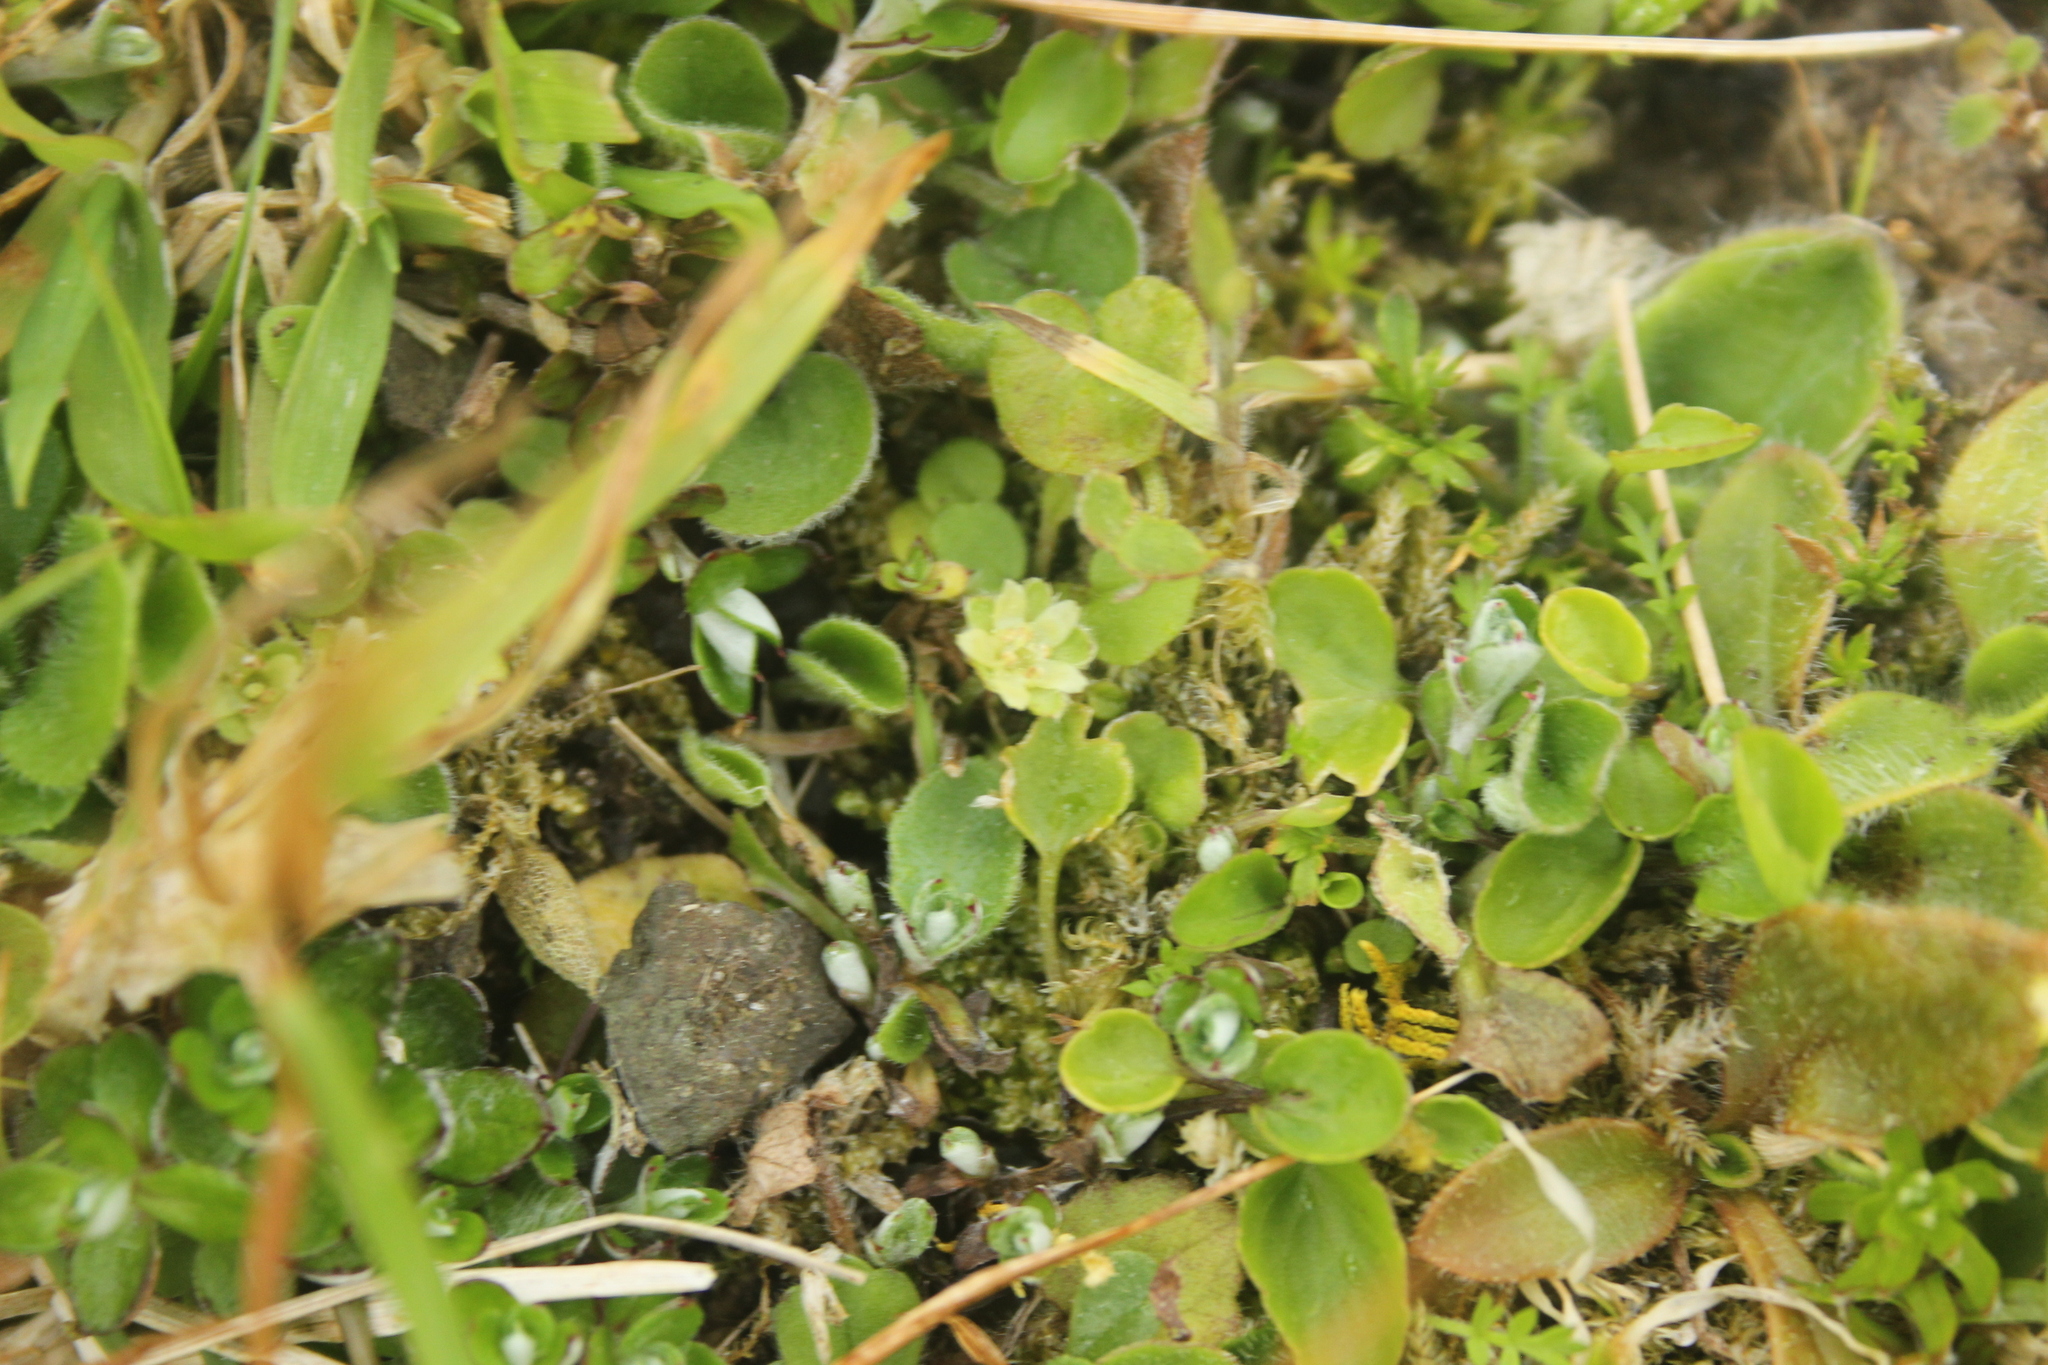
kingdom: Plantae
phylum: Tracheophyta
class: Magnoliopsida
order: Solanales
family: Convolvulaceae
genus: Dichondra
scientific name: Dichondra brevifolia
